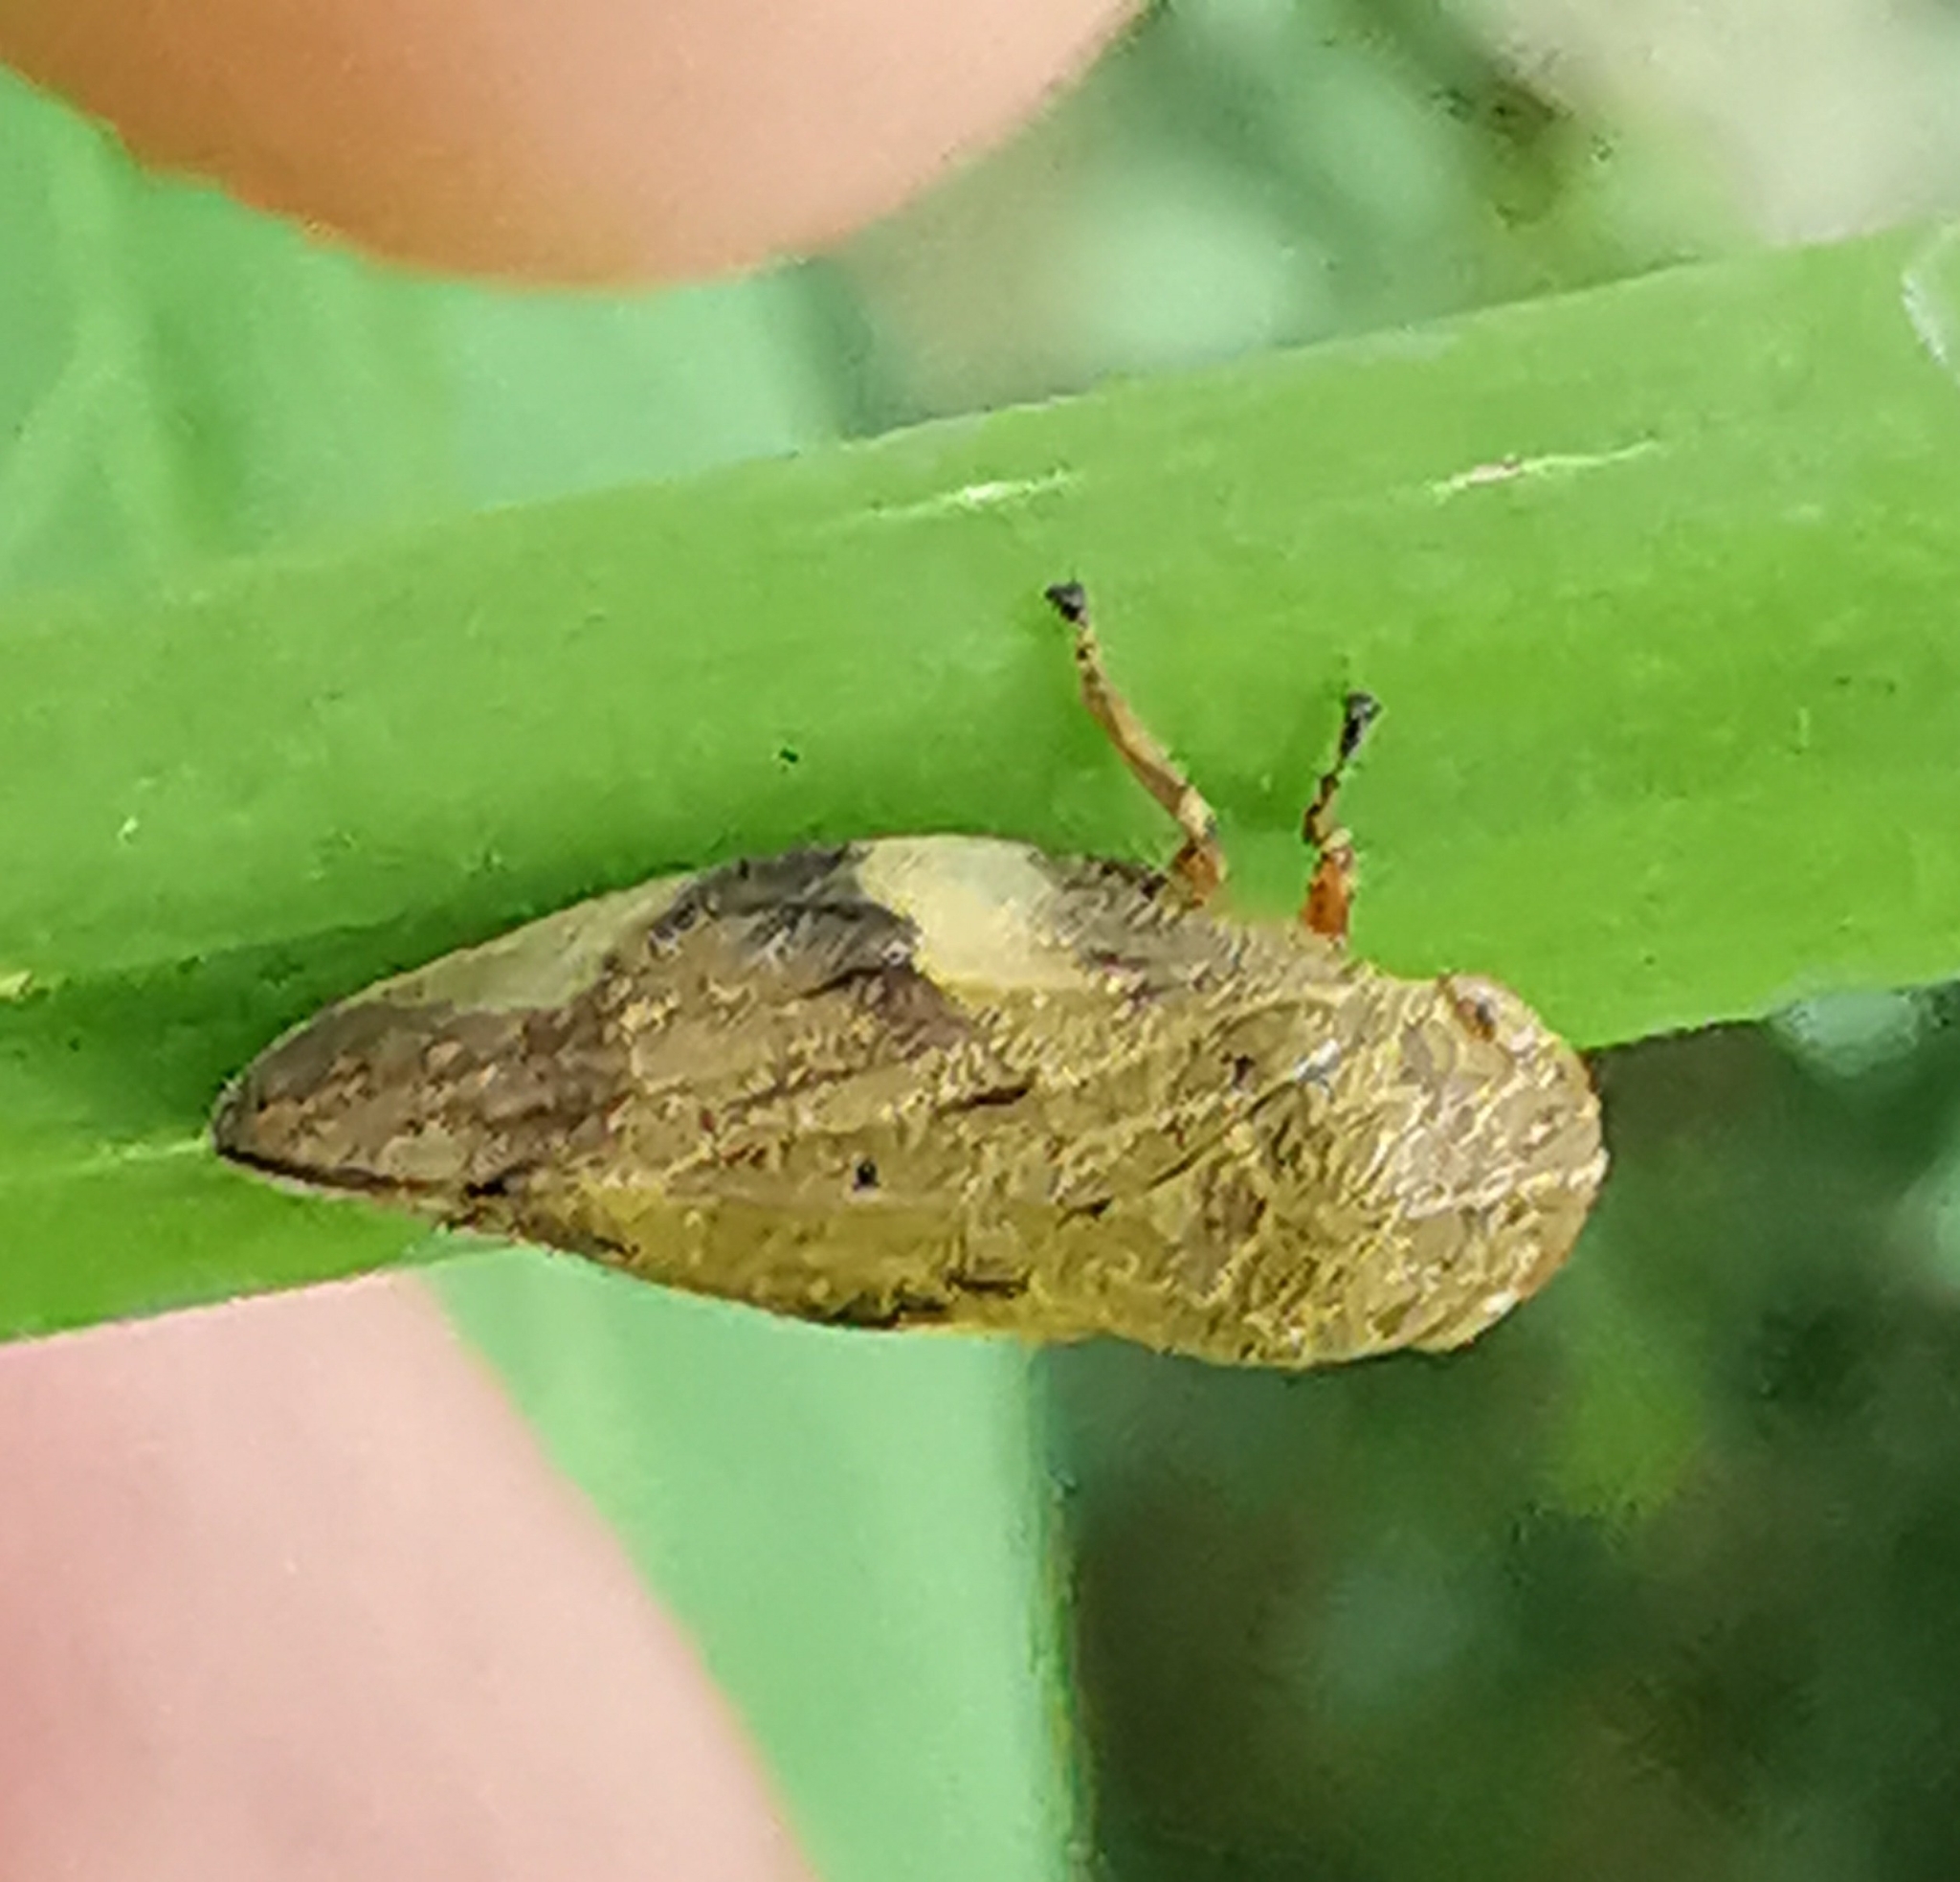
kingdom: Animalia
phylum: Arthropoda
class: Insecta
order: Hemiptera
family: Aphrophoridae
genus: Aphrophora
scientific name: Aphrophora alni
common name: European alder spittlebug
